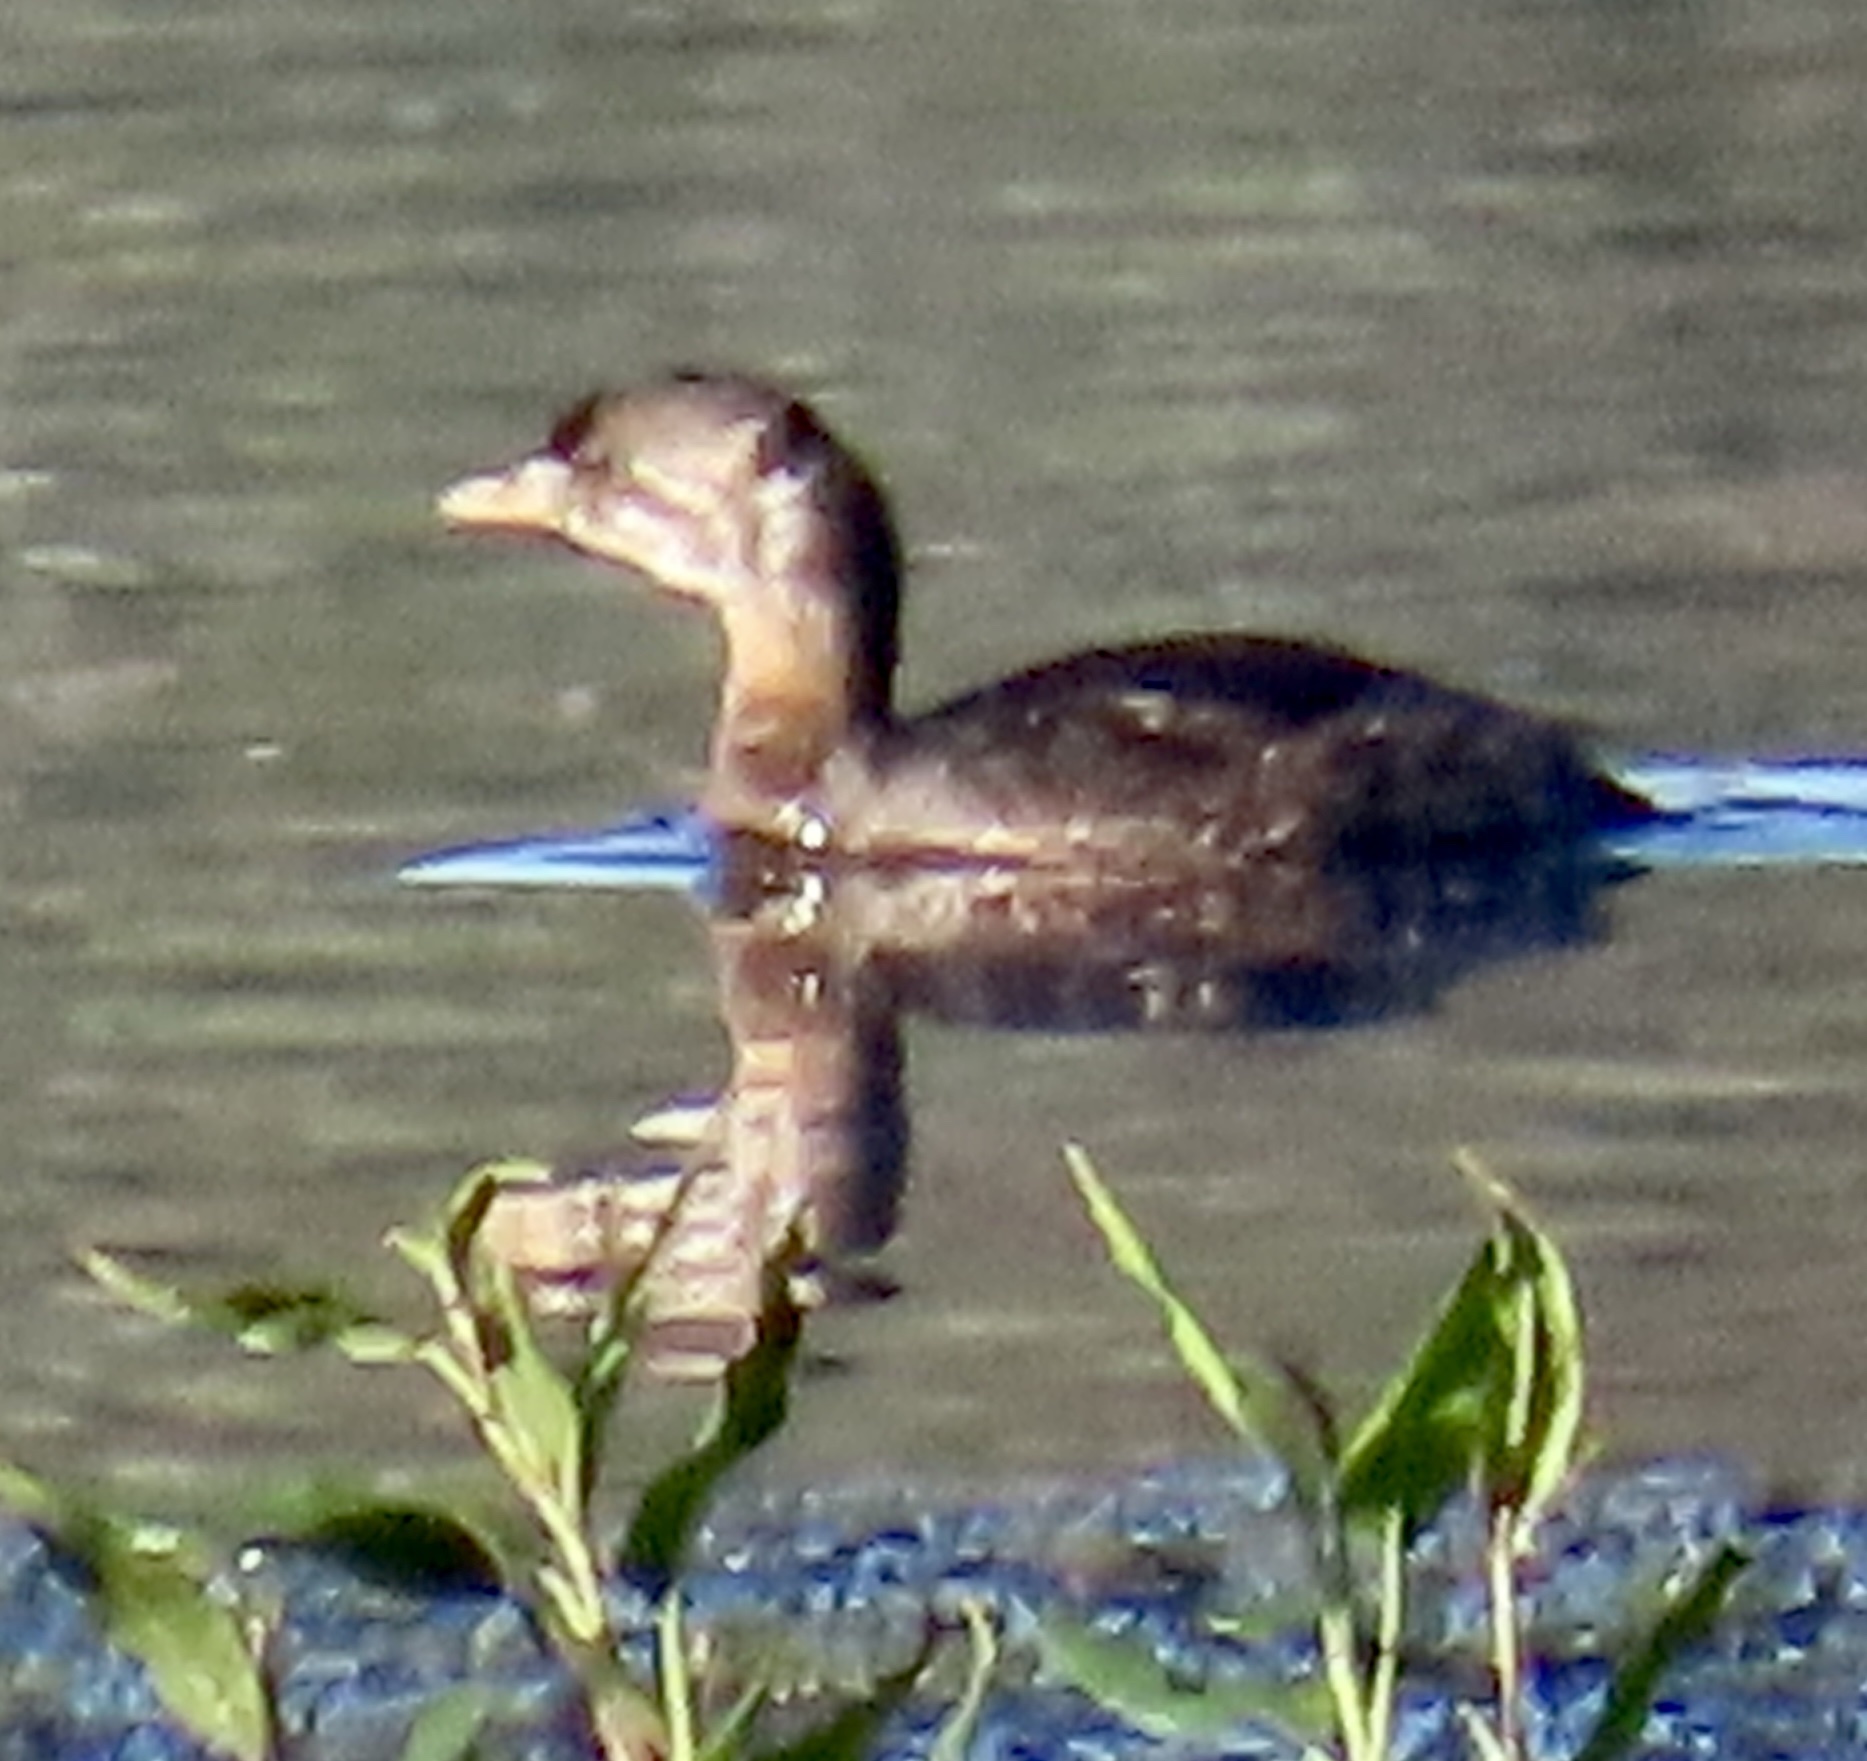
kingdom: Animalia
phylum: Chordata
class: Aves
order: Podicipediformes
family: Podicipedidae
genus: Podilymbus
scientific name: Podilymbus podiceps
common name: Pied-billed grebe
